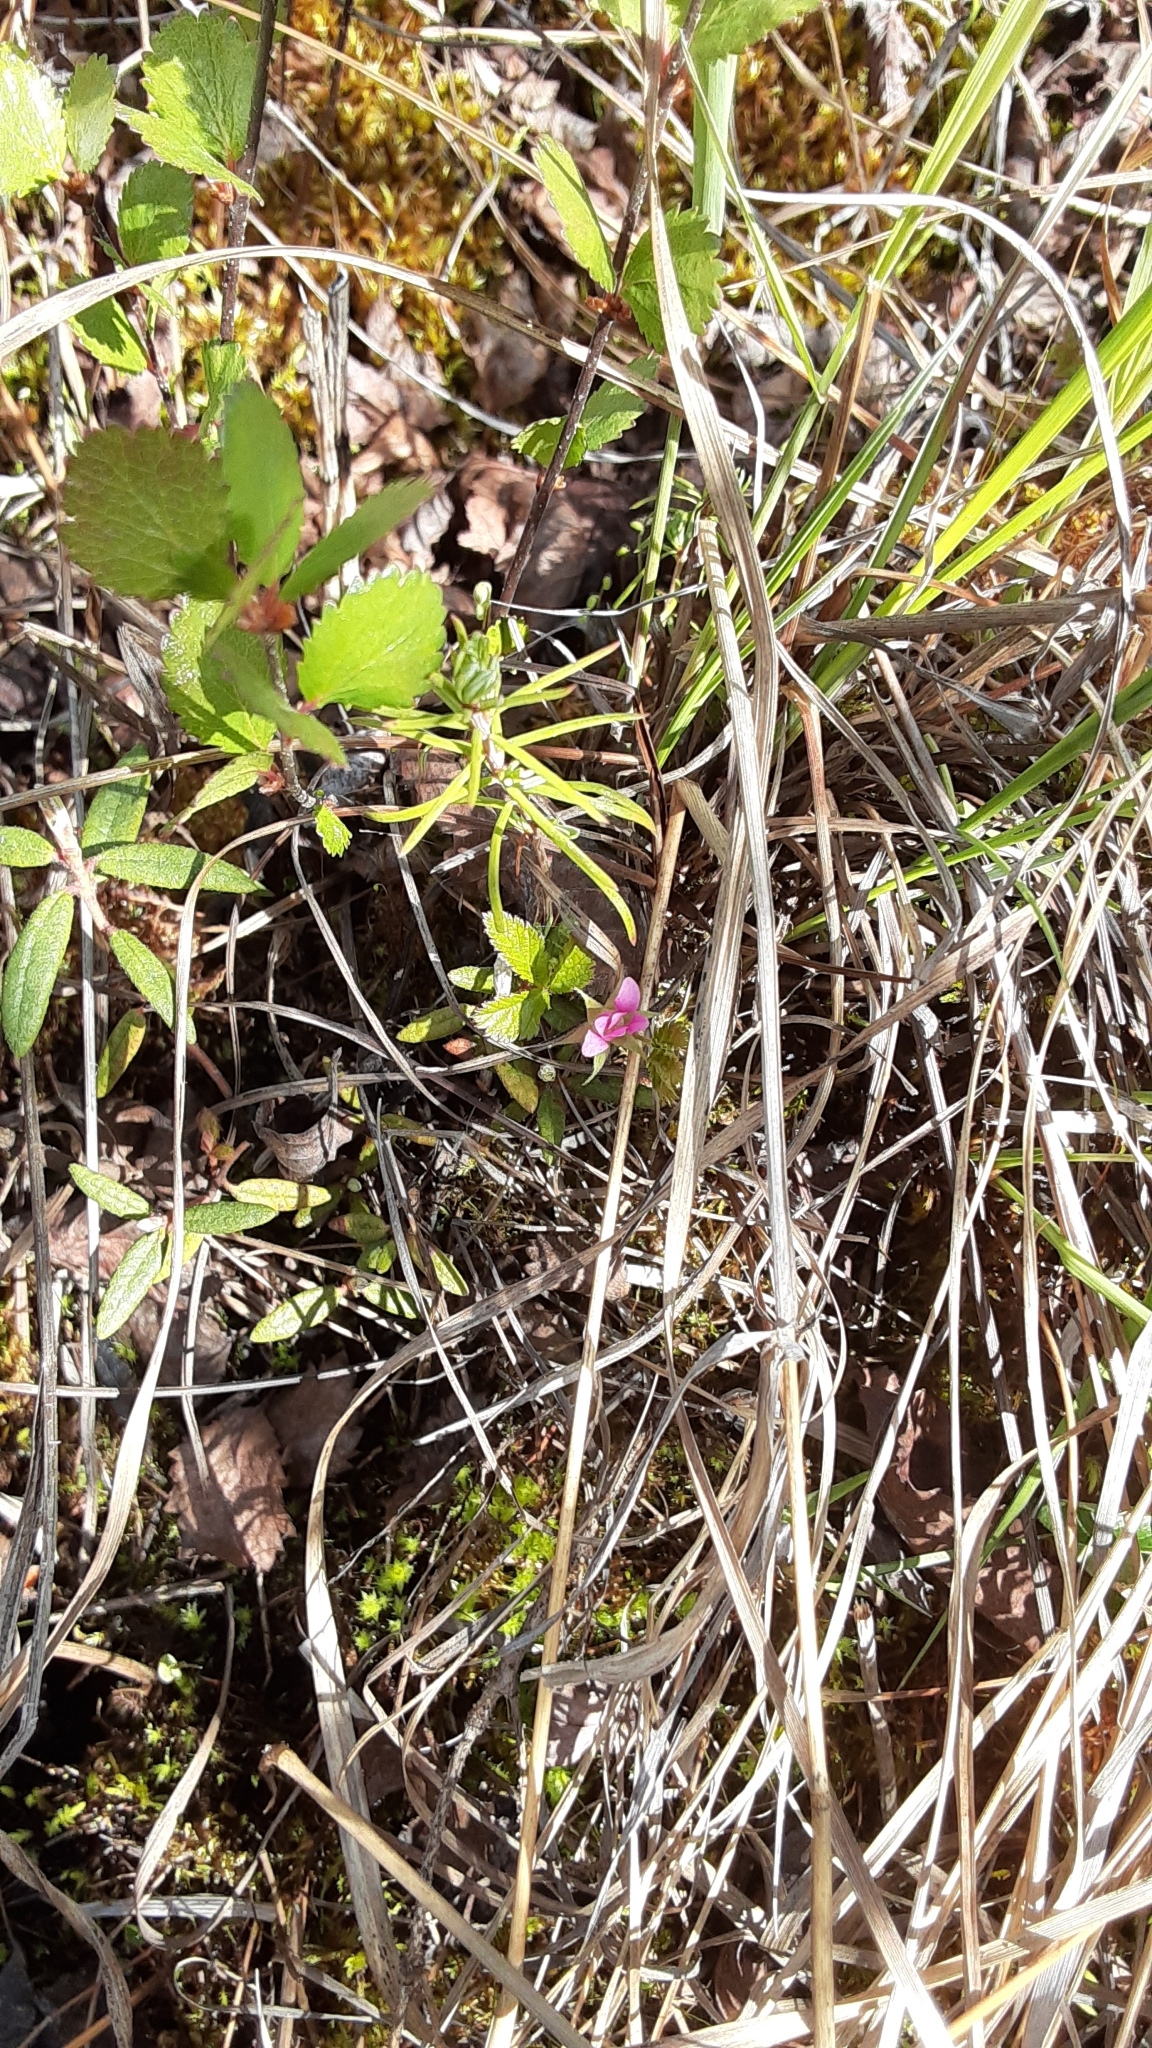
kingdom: Plantae
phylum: Tracheophyta
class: Magnoliopsida
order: Rosales
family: Rosaceae
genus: Rubus
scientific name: Rubus arcticus
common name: Arctic bramble
